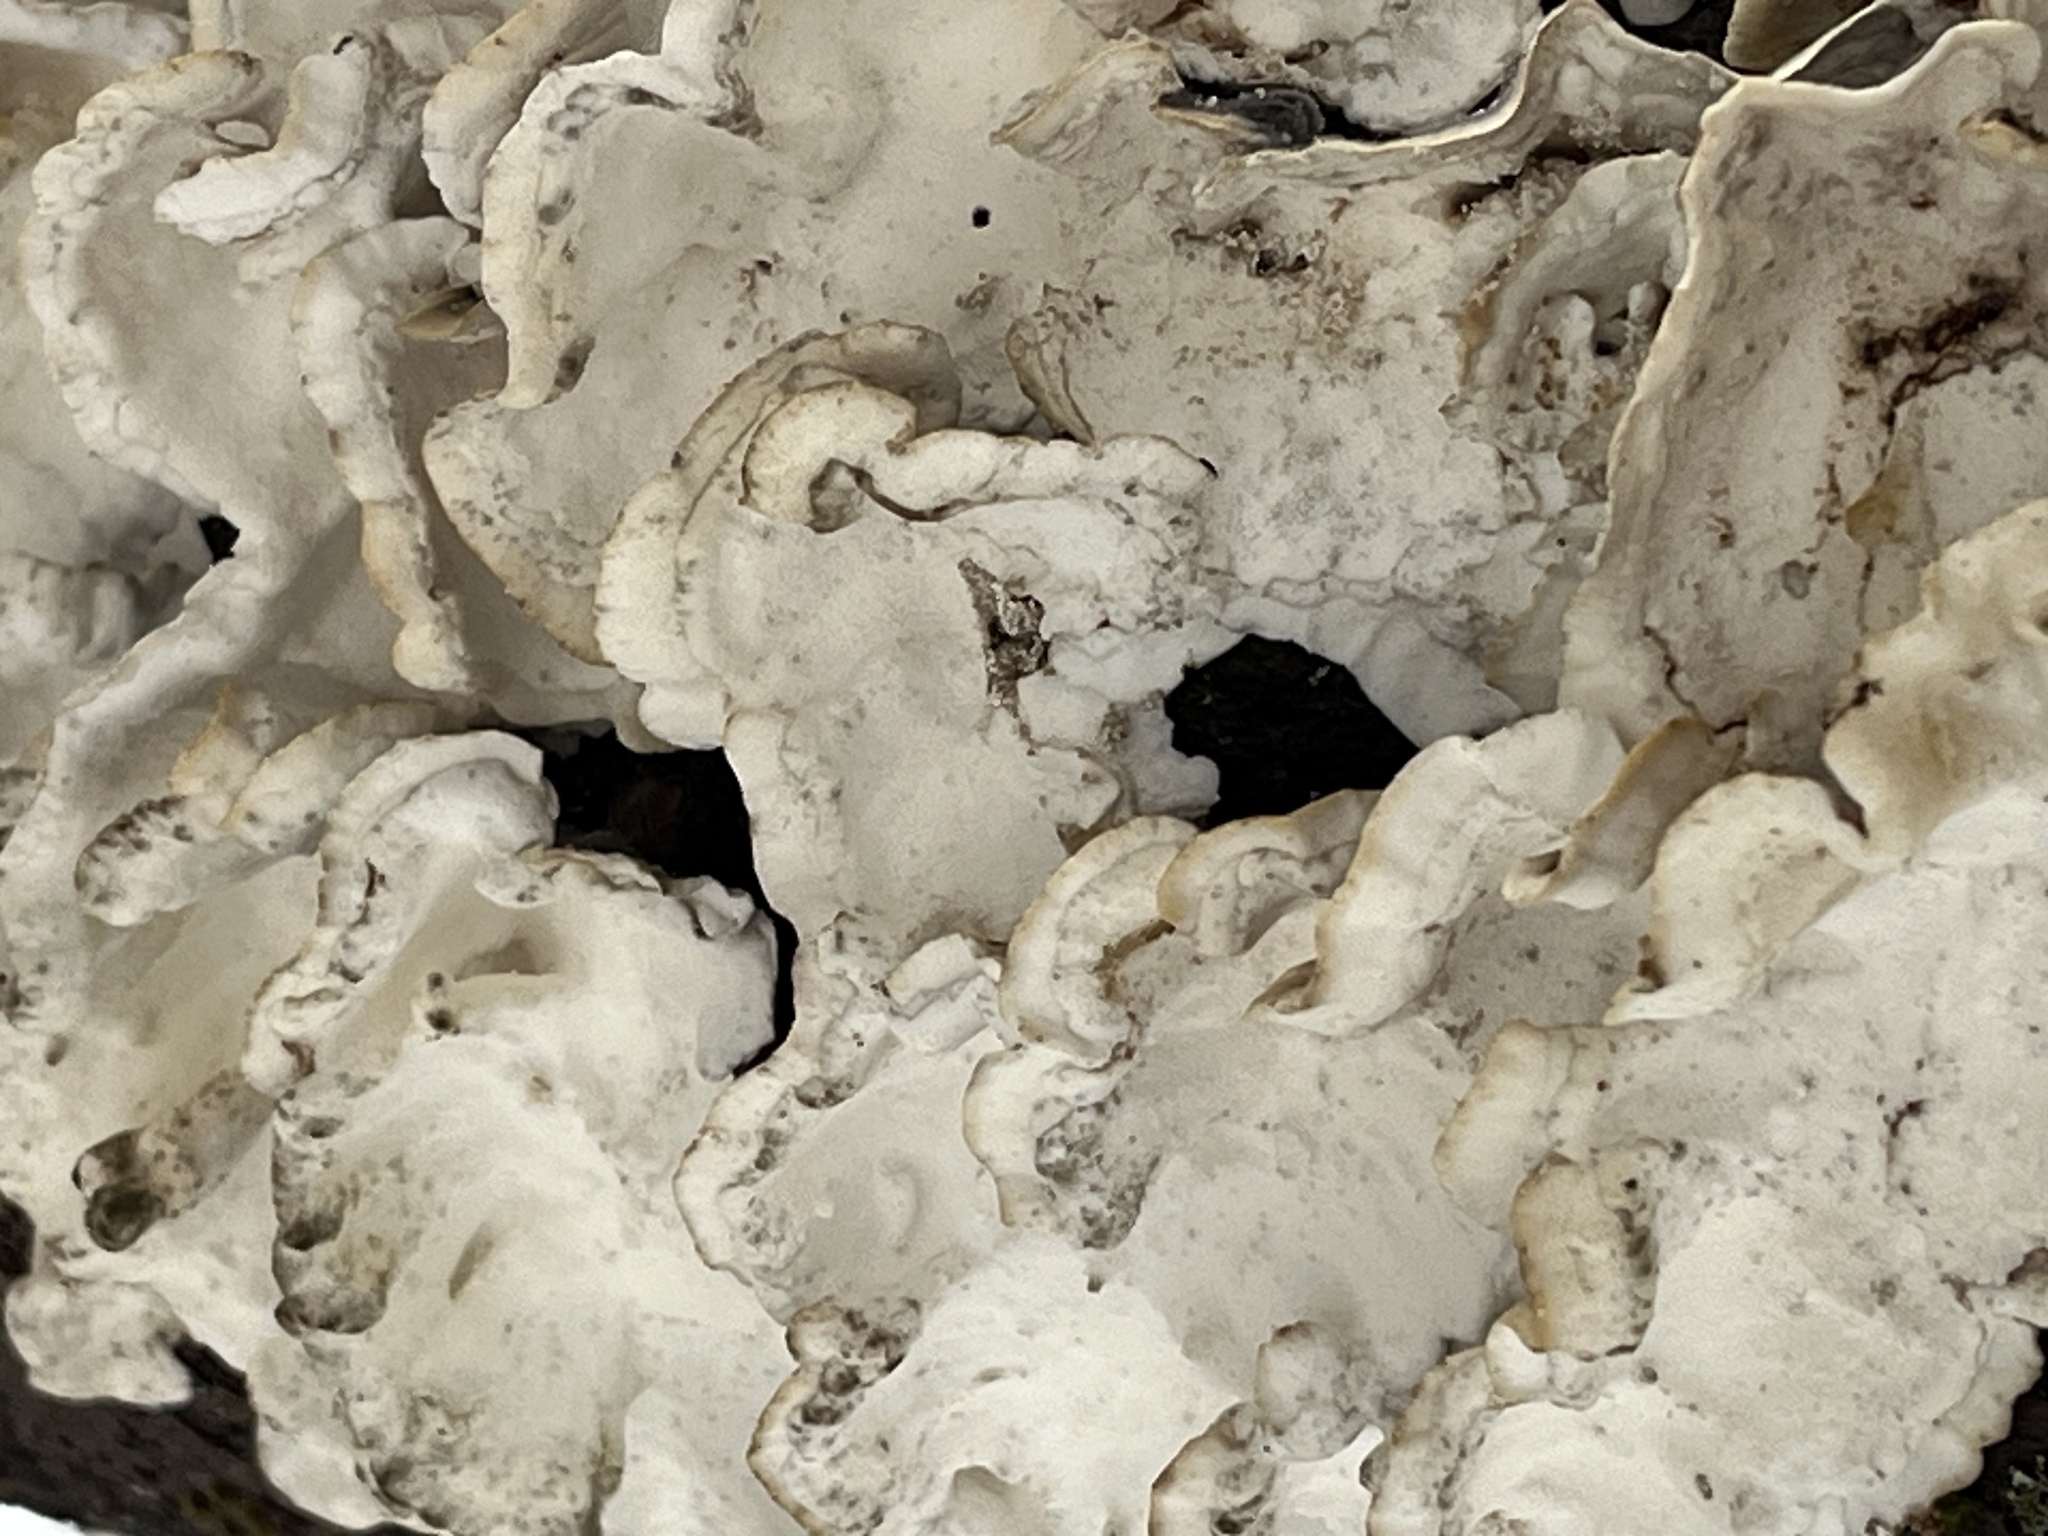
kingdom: Fungi
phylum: Basidiomycota
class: Agaricomycetes
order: Polyporales
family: Polyporaceae
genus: Trametes
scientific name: Trametes versicolor
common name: Turkeytail
